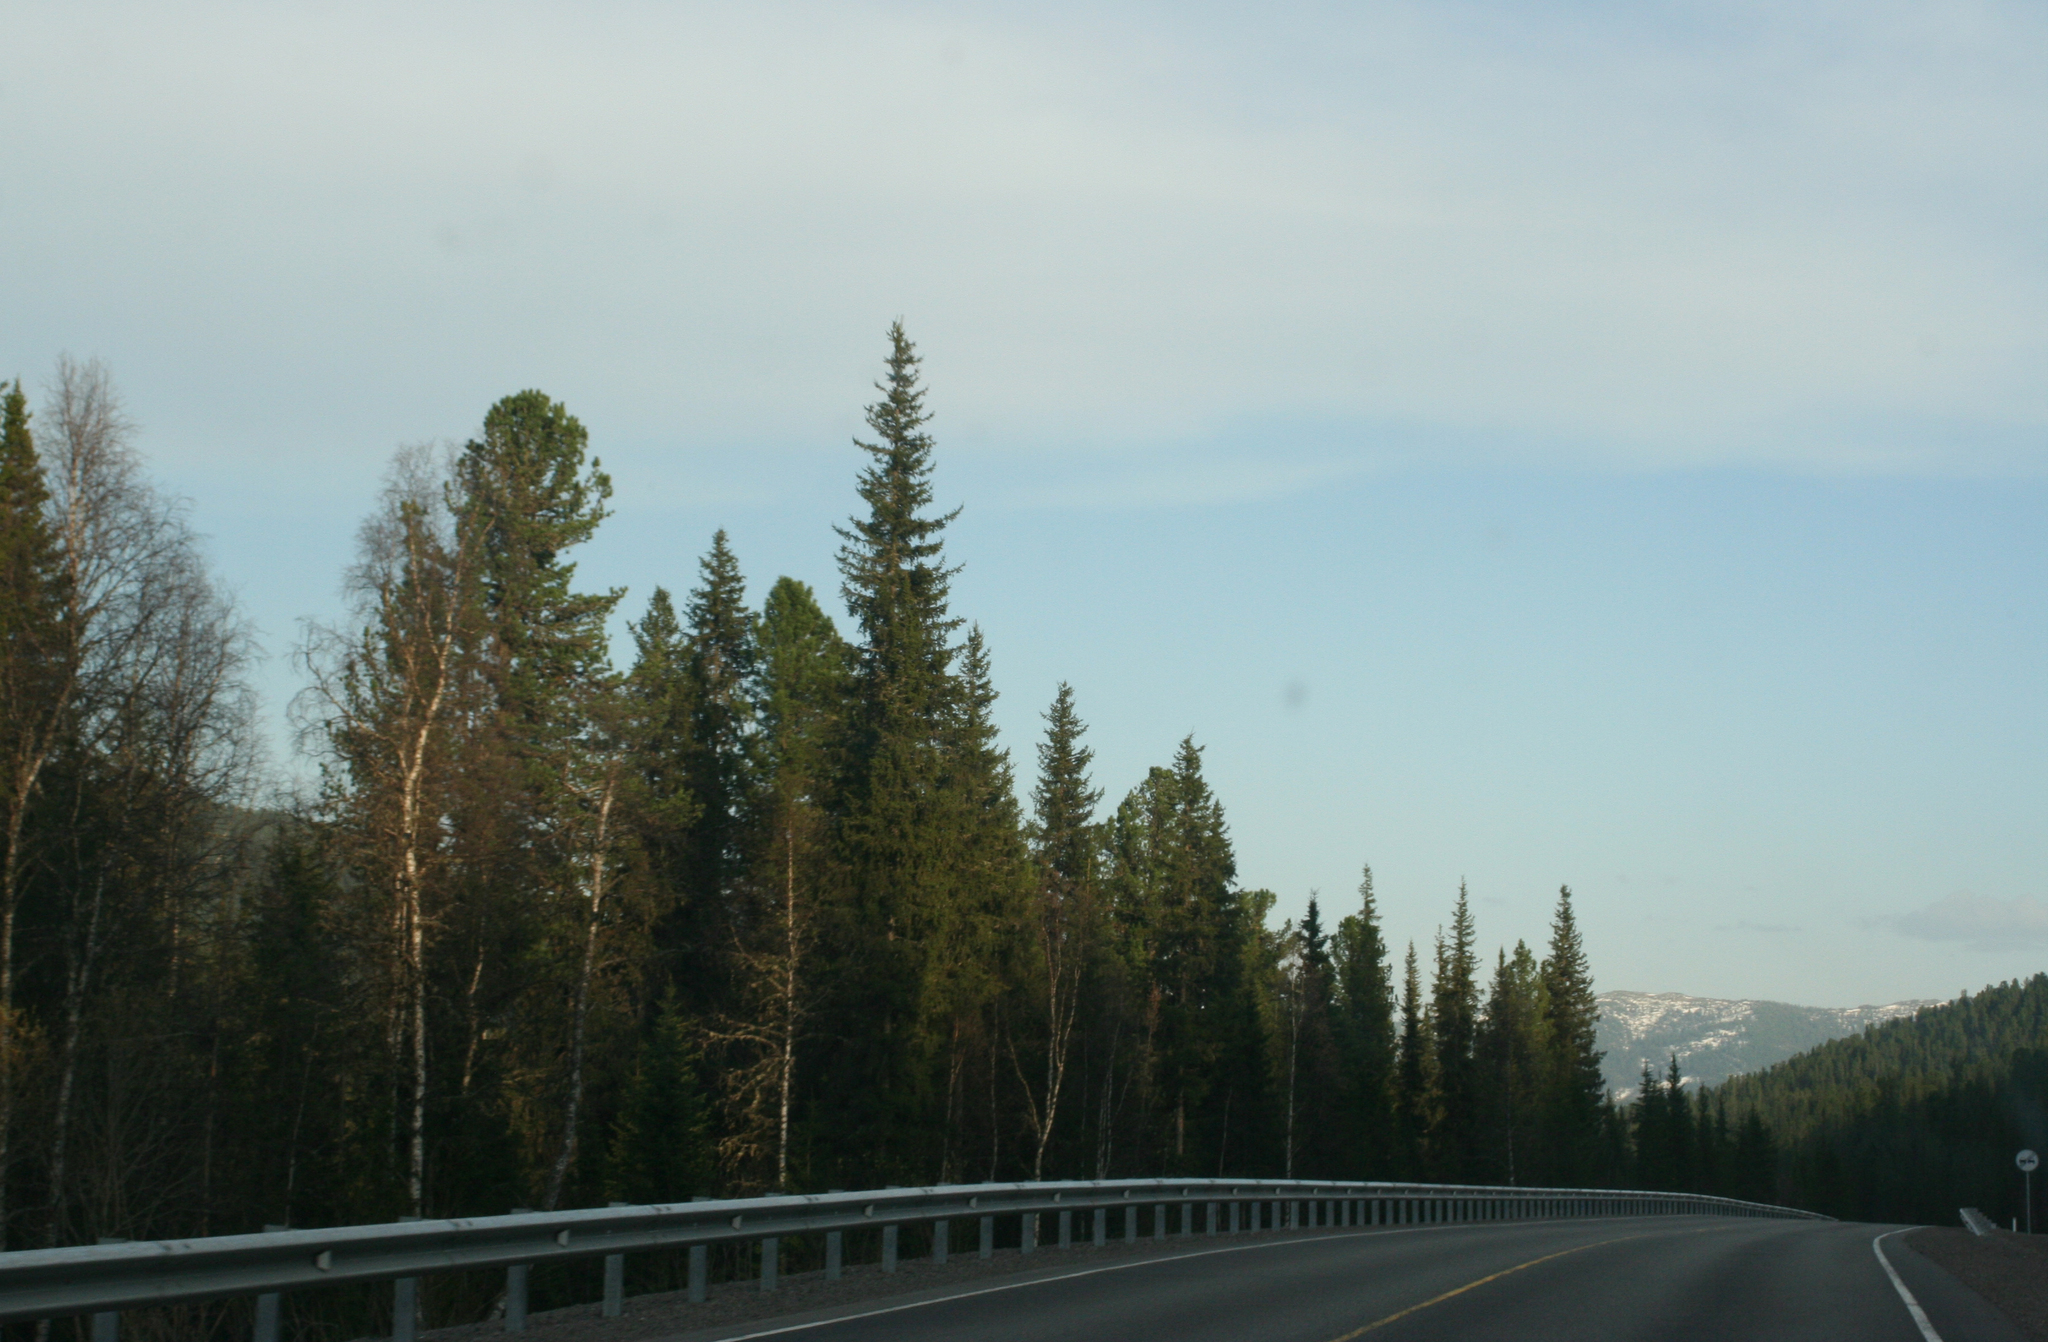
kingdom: Plantae
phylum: Tracheophyta
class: Pinopsida
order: Pinales
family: Pinaceae
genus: Abies
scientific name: Abies sibirica
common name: Siberian fir
